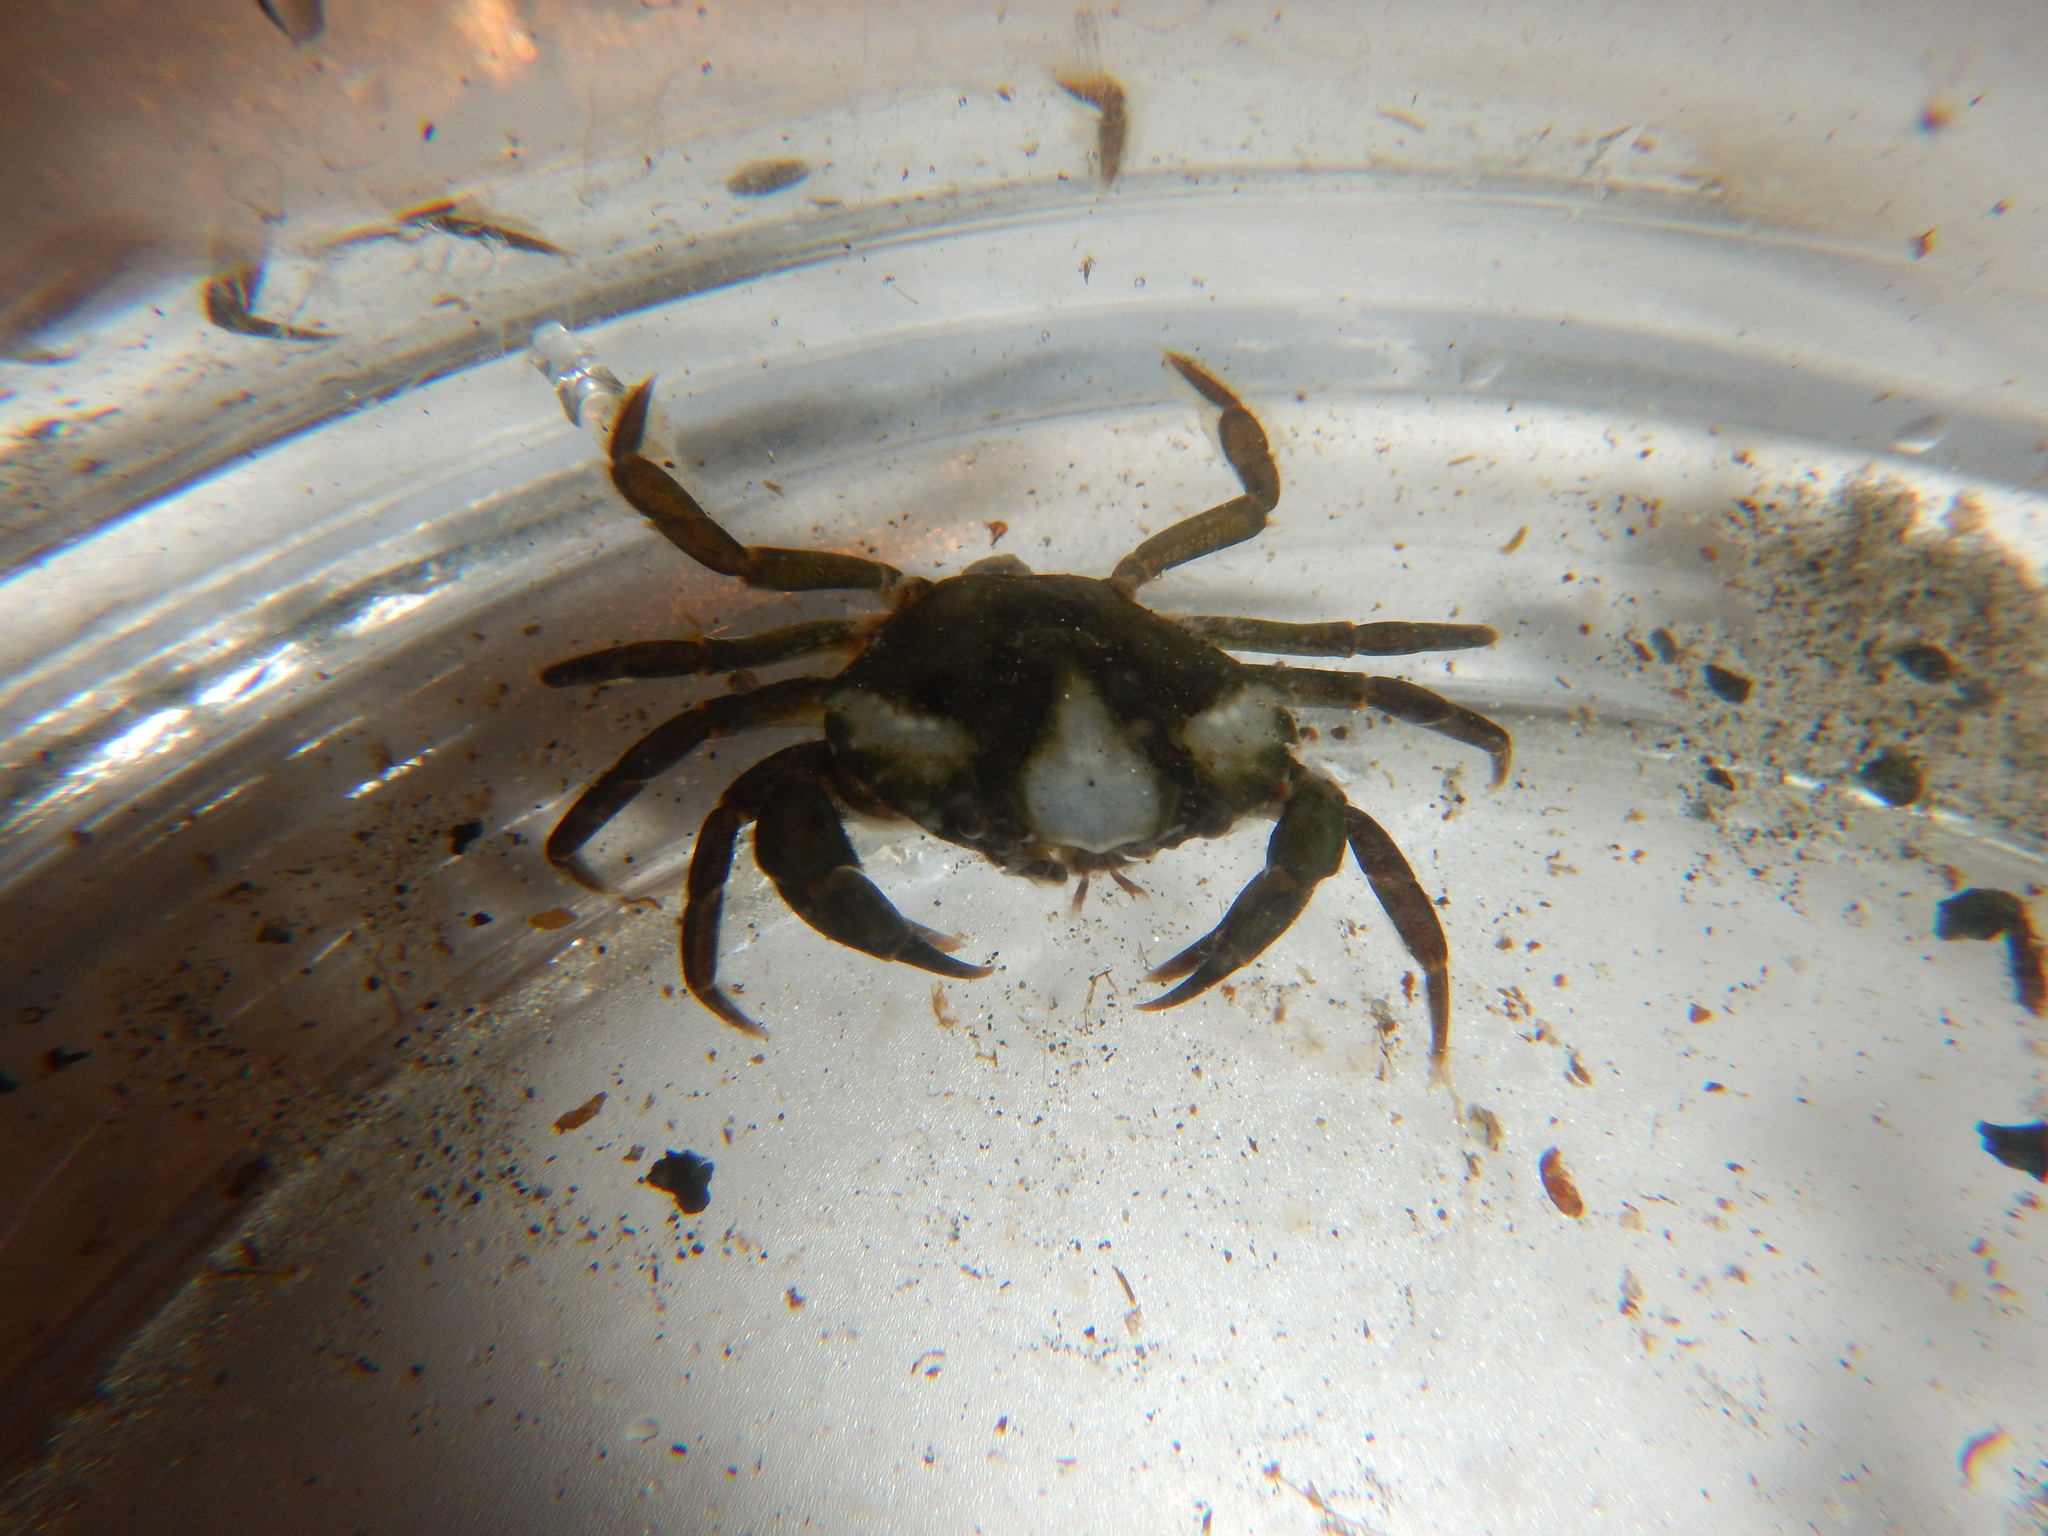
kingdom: Animalia
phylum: Arthropoda
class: Malacostraca
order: Decapoda
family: Carcinidae
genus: Carcinus
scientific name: Carcinus maenas
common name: European green crab
